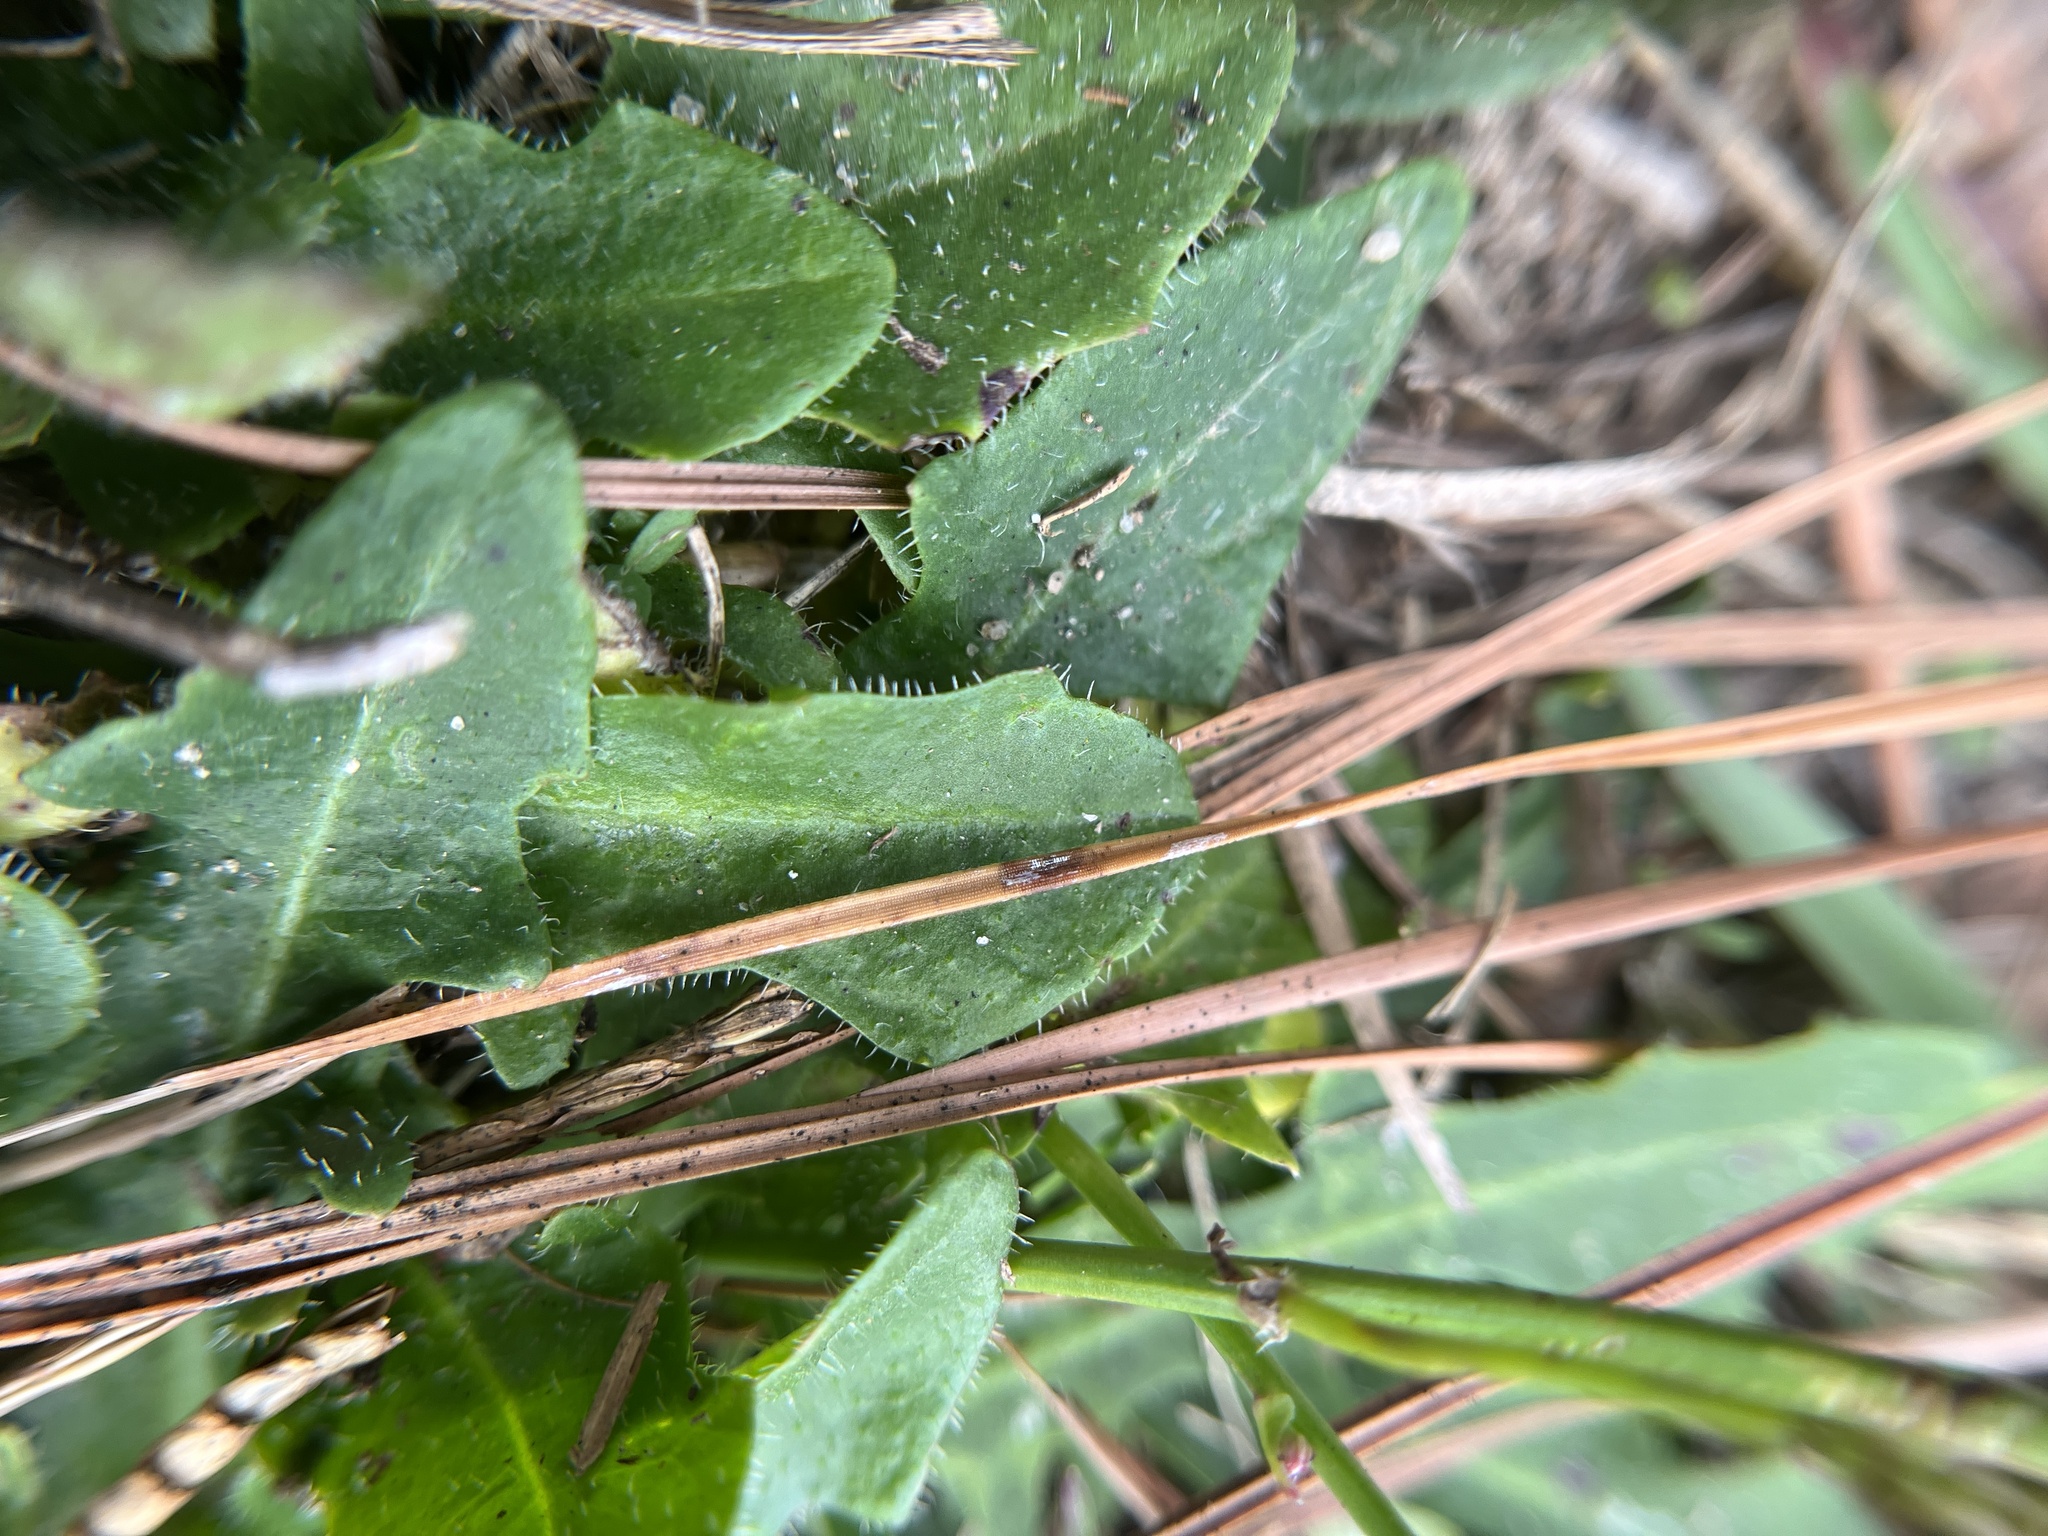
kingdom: Plantae
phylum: Tracheophyta
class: Magnoliopsida
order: Asterales
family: Asteraceae
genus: Hypochaeris
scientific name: Hypochaeris radicata
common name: Flatweed
